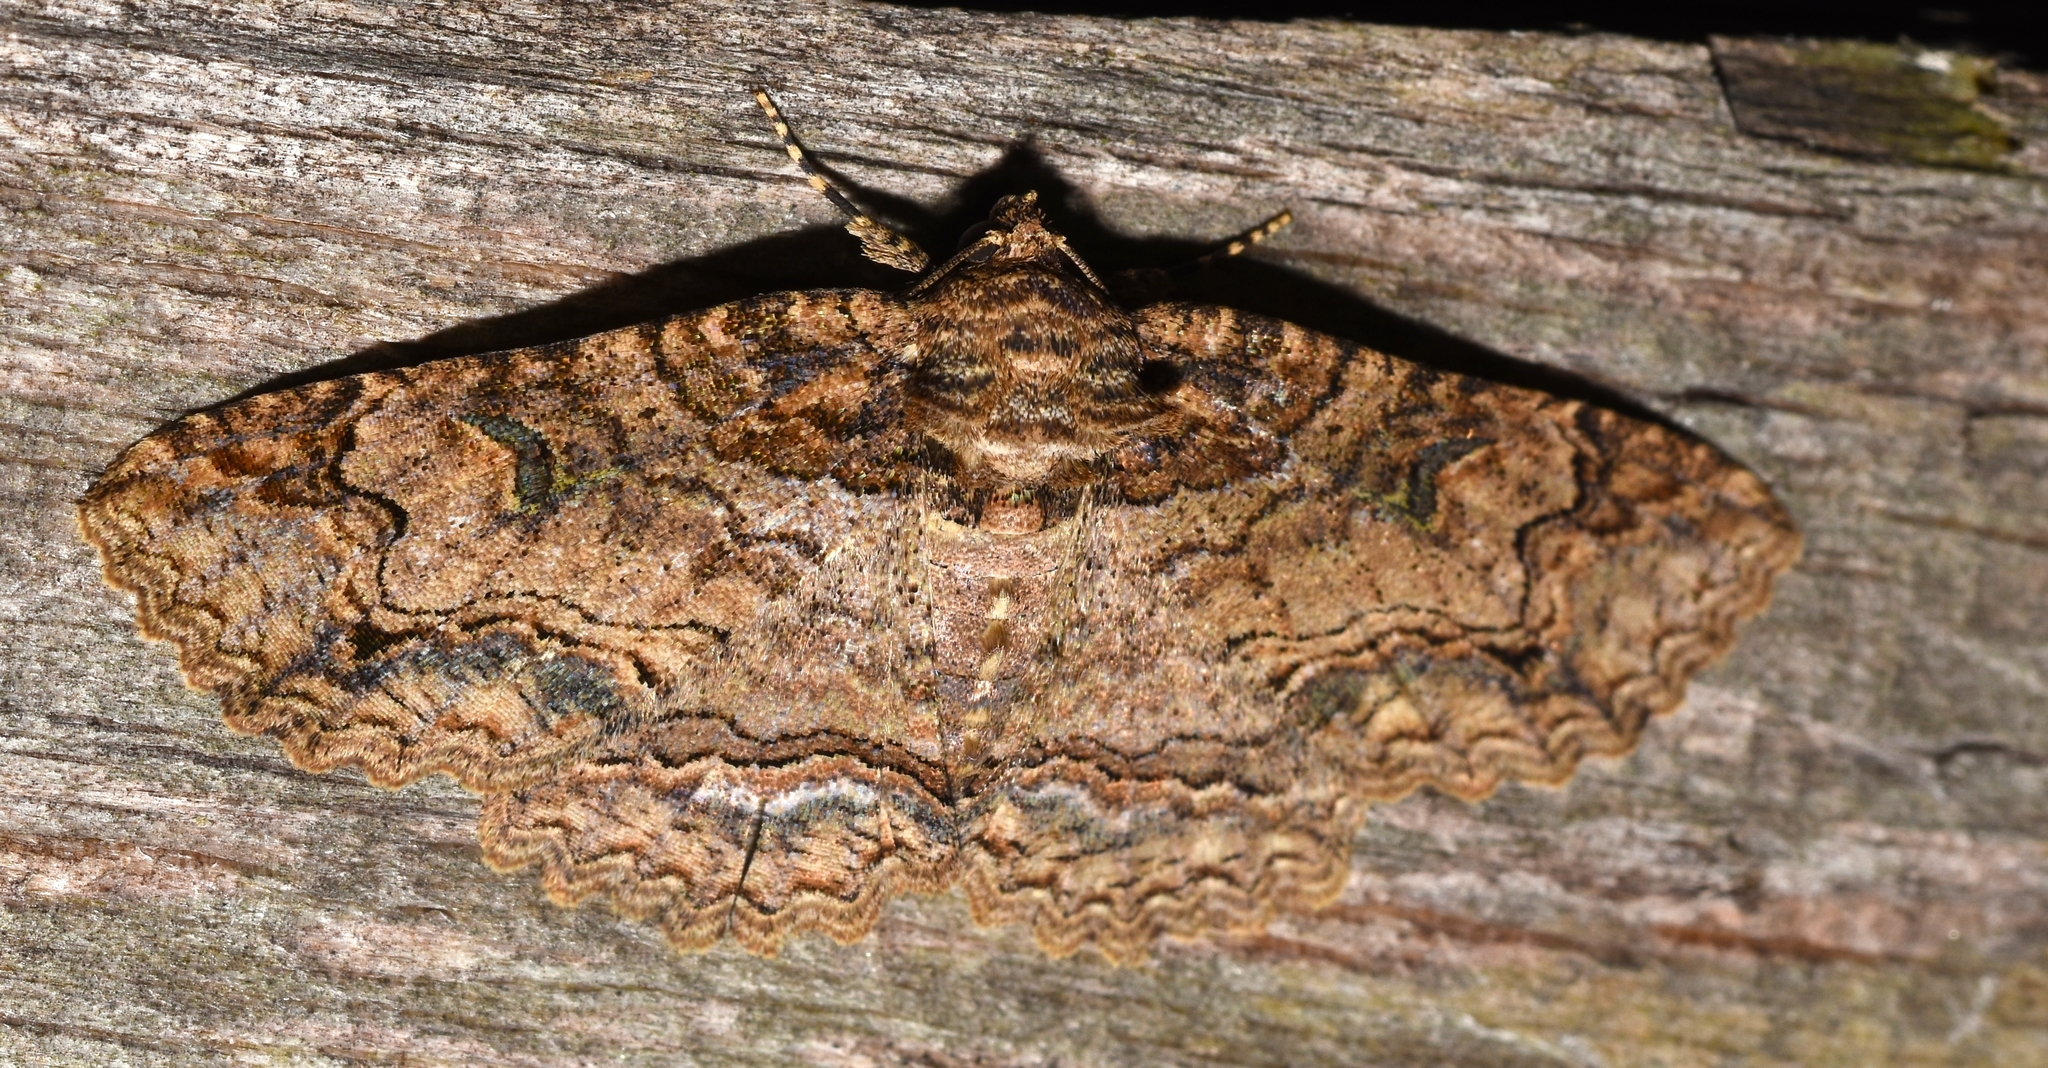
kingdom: Animalia
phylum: Arthropoda
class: Insecta
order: Lepidoptera
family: Erebidae
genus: Zale
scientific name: Zale phaeocapna
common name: Hazel zale moth
